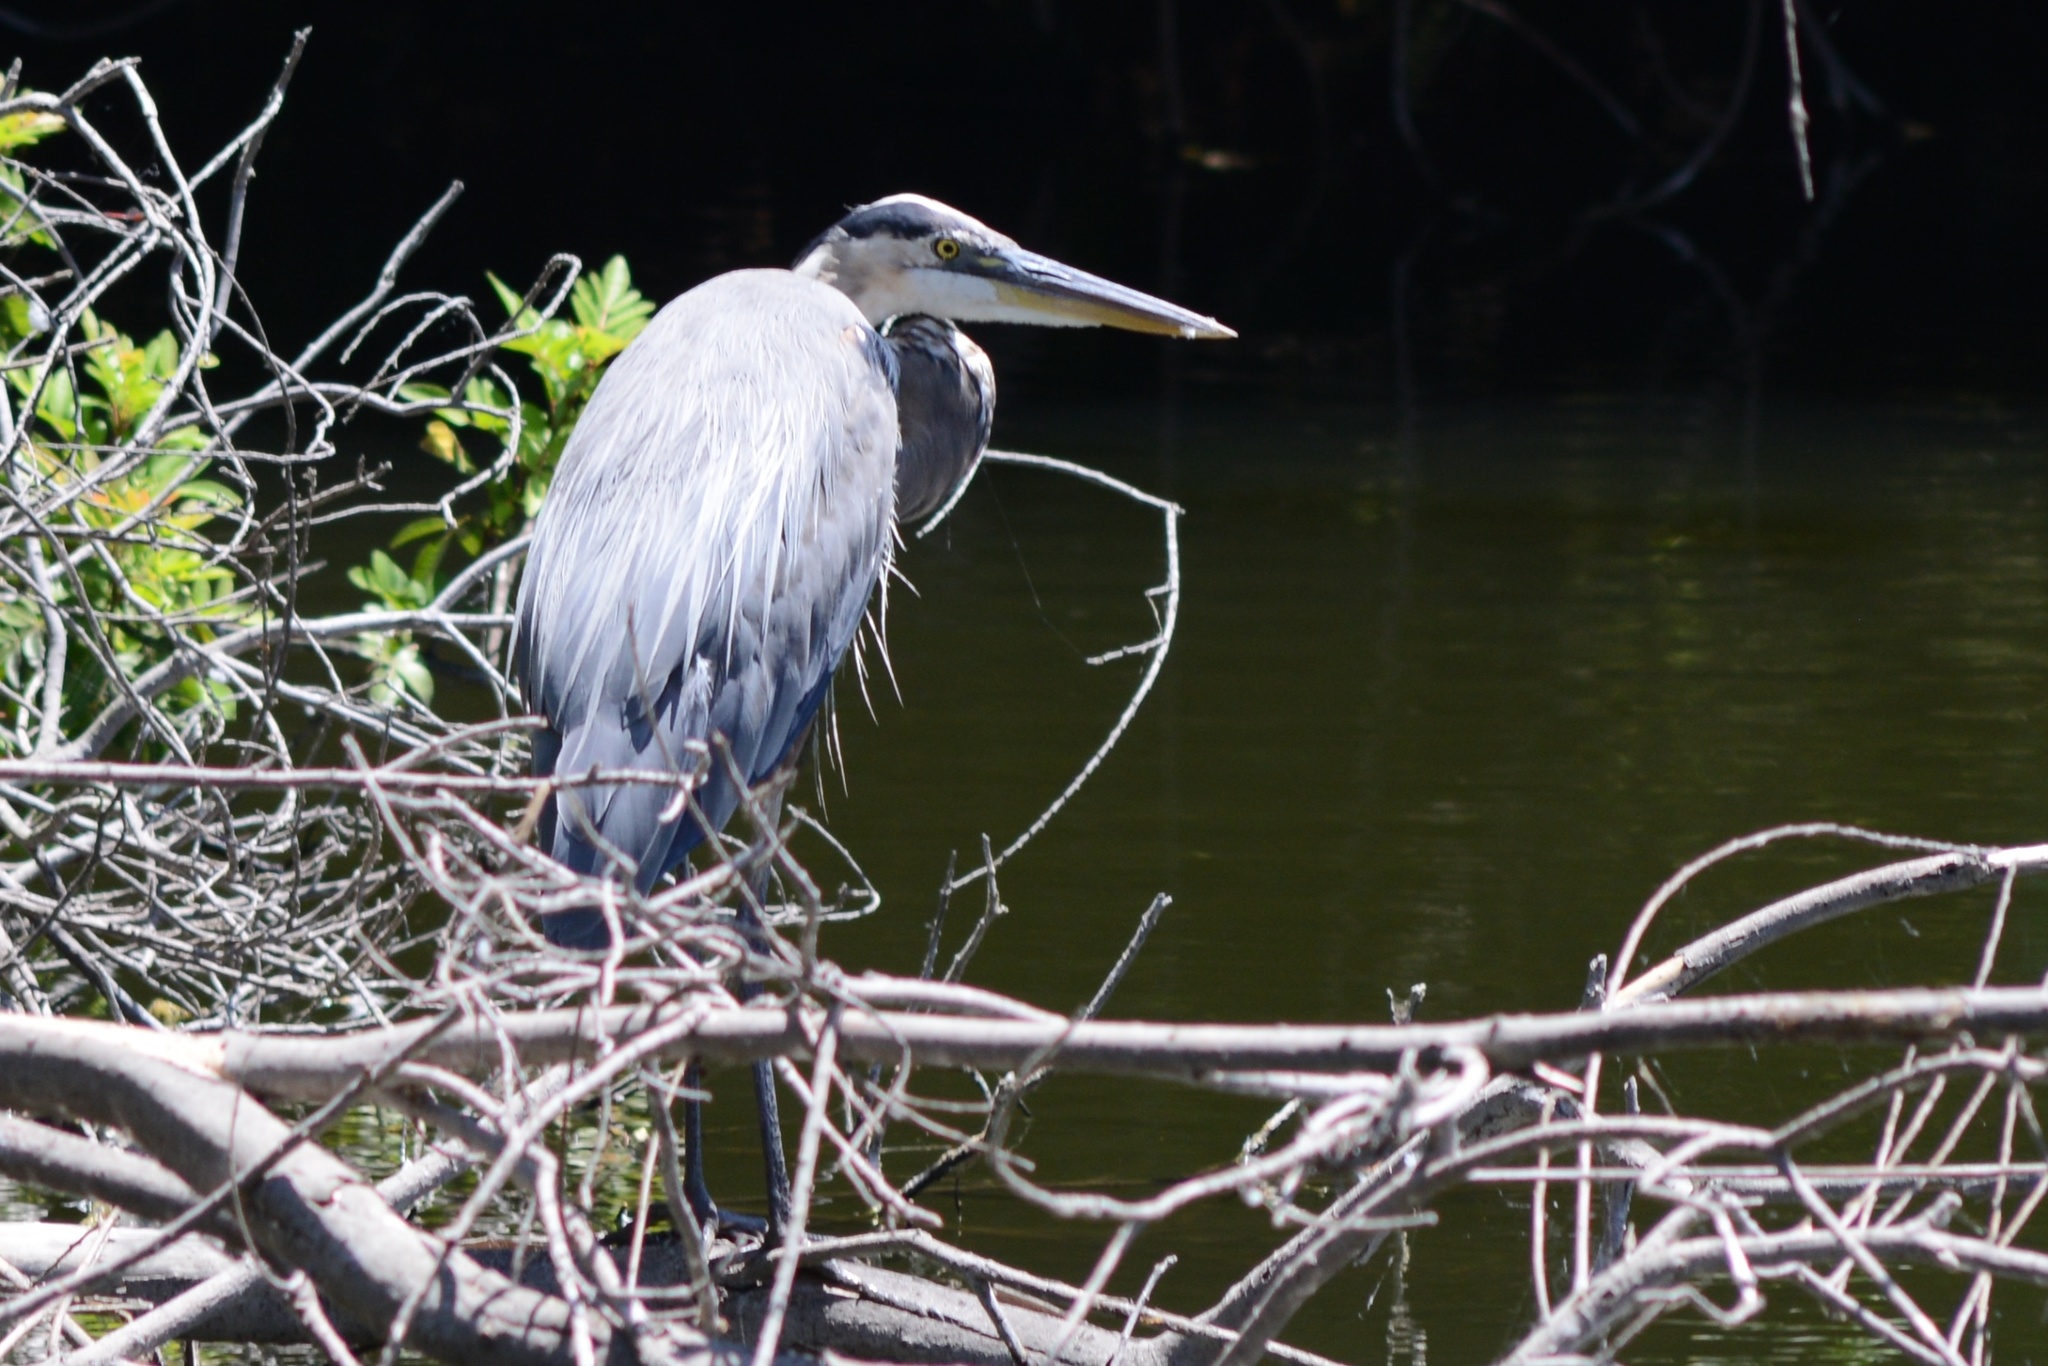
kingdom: Animalia
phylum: Chordata
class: Aves
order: Pelecaniformes
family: Ardeidae
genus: Ardea
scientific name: Ardea herodias
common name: Great blue heron
